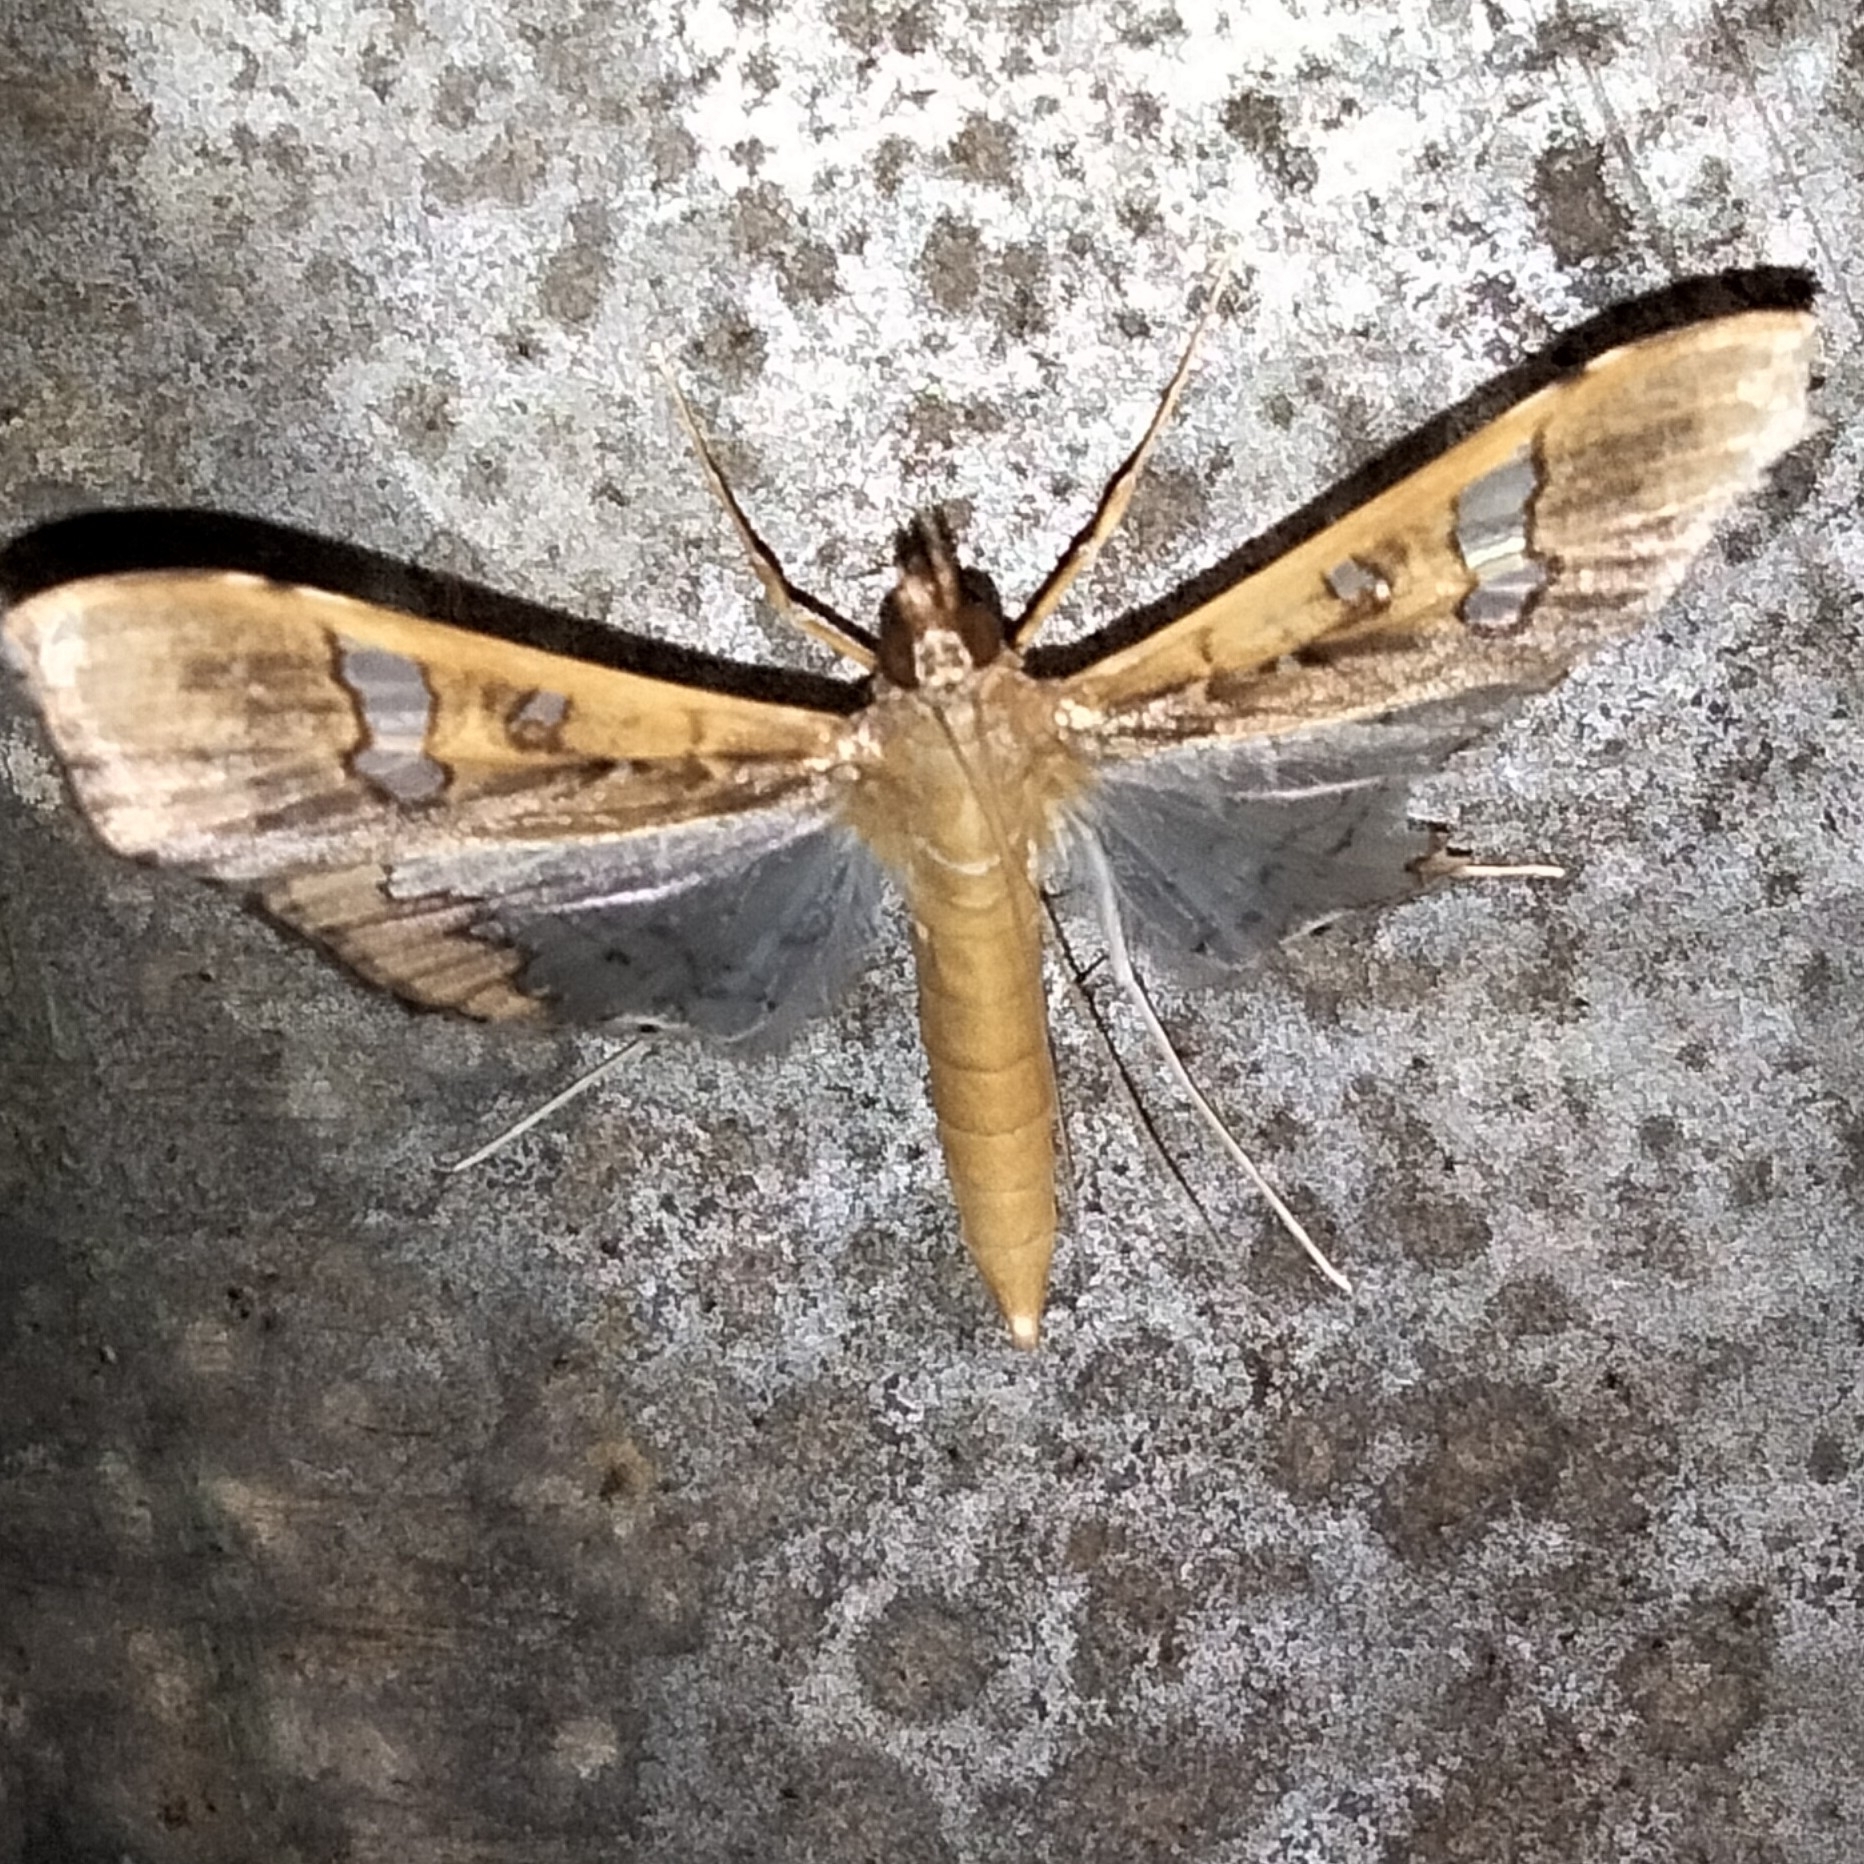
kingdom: Animalia
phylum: Arthropoda
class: Insecta
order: Lepidoptera
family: Crambidae
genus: Maruca
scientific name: Maruca vitrata
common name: Maruca pod borer
